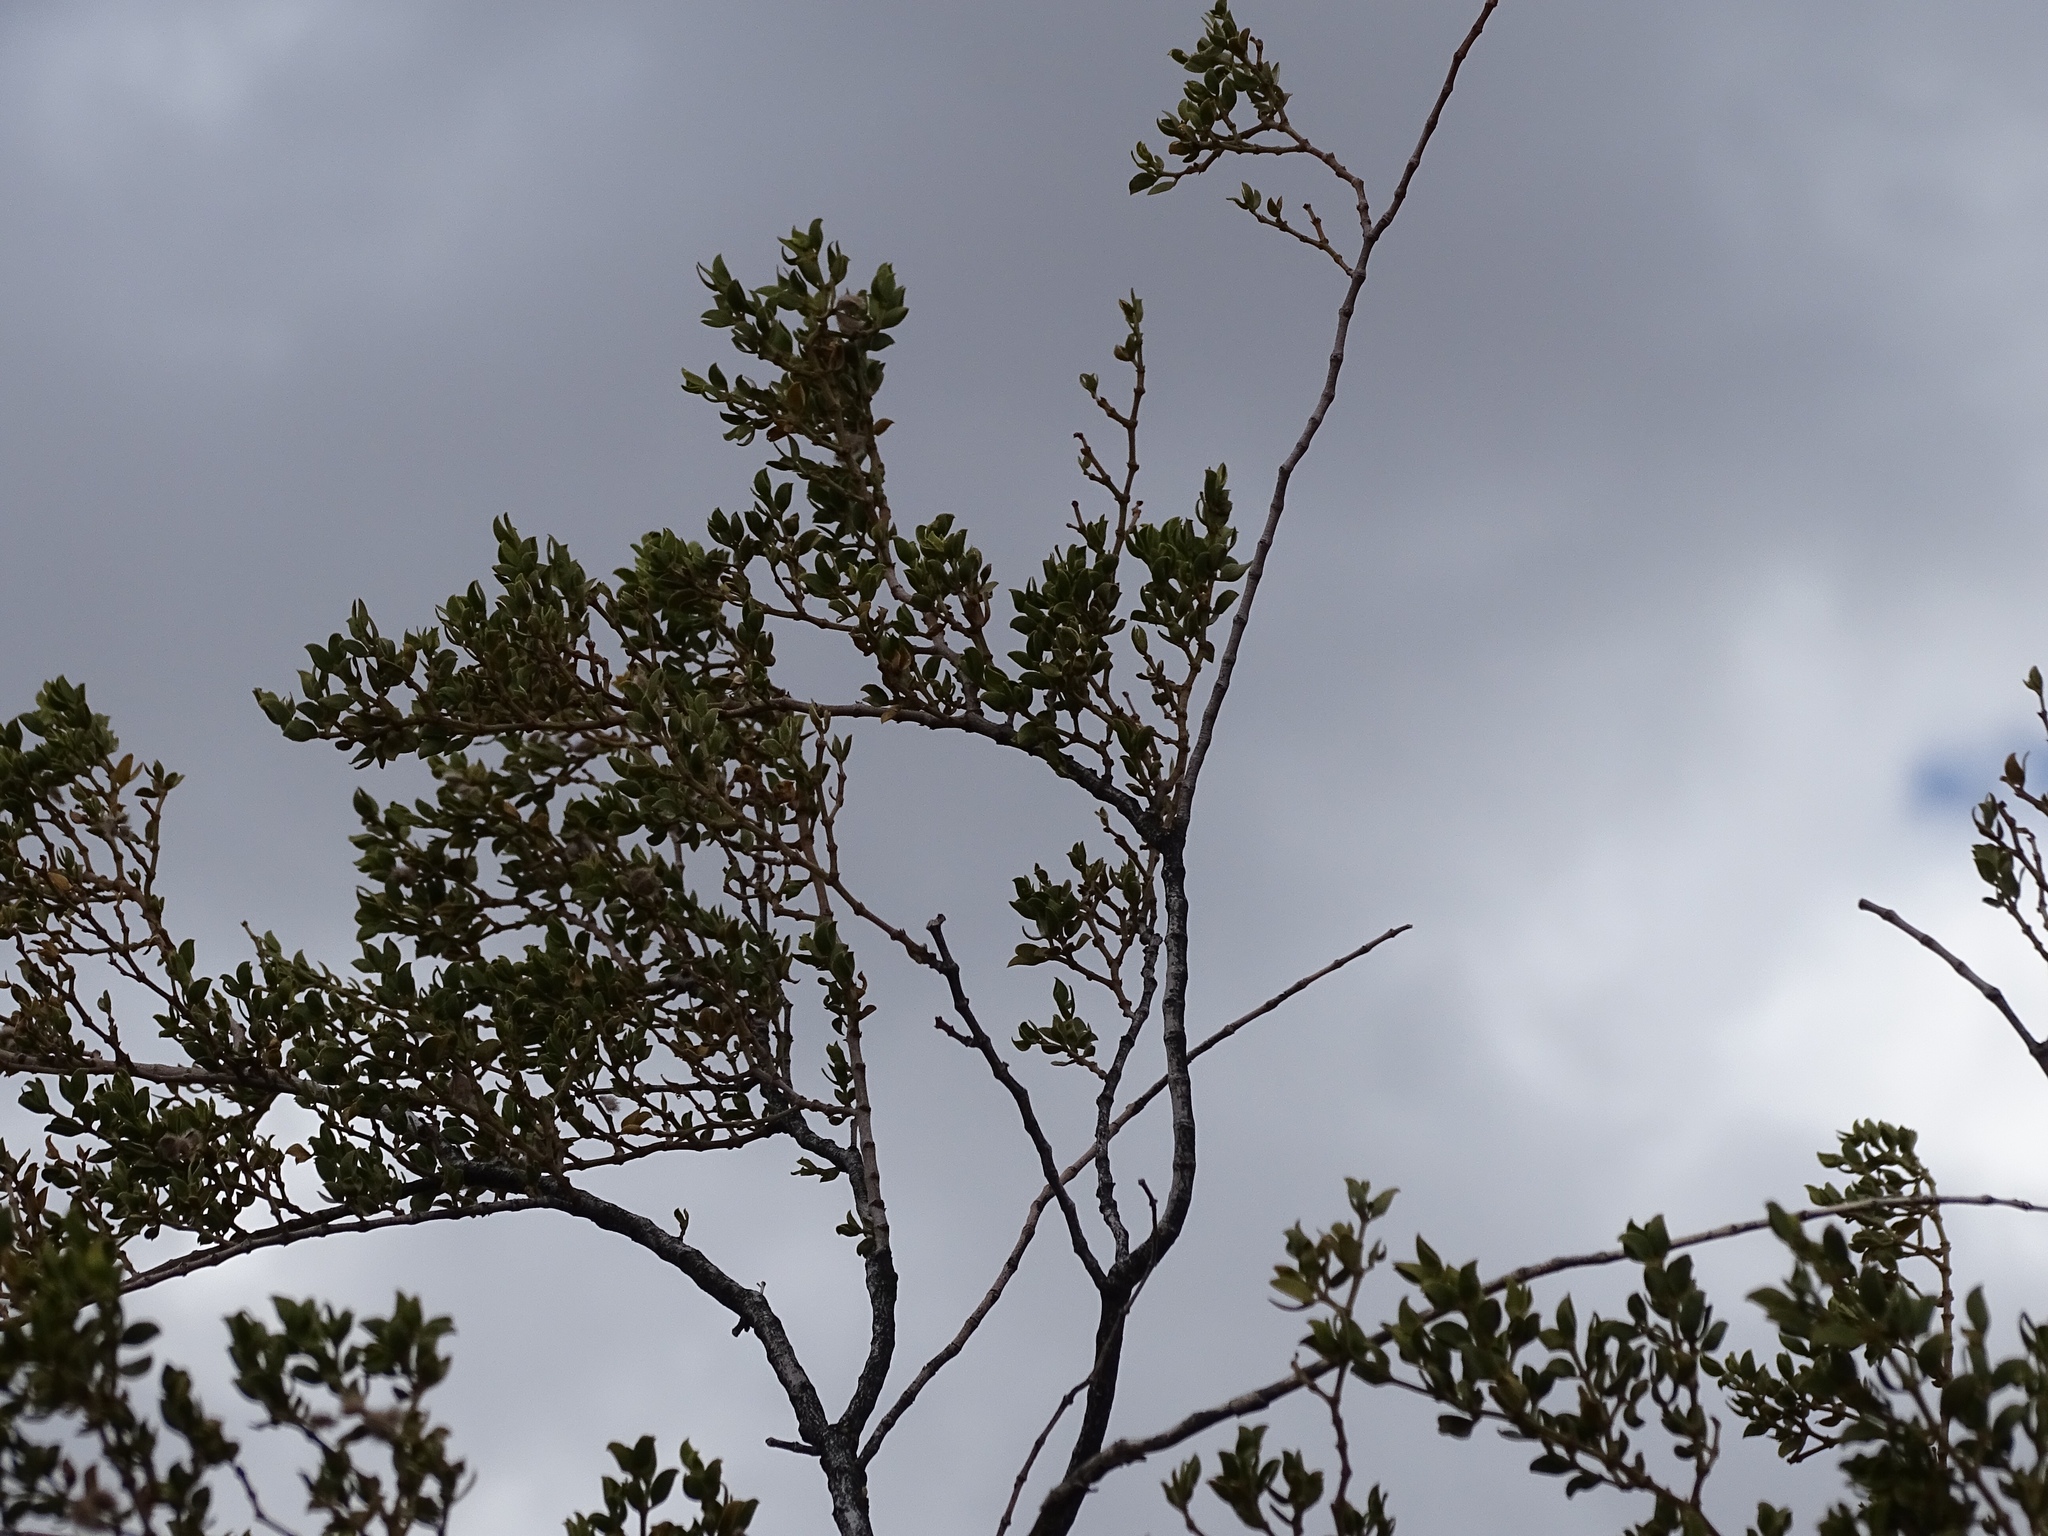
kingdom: Plantae
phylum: Tracheophyta
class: Magnoliopsida
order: Zygophyllales
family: Zygophyllaceae
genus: Larrea
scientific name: Larrea tridentata
